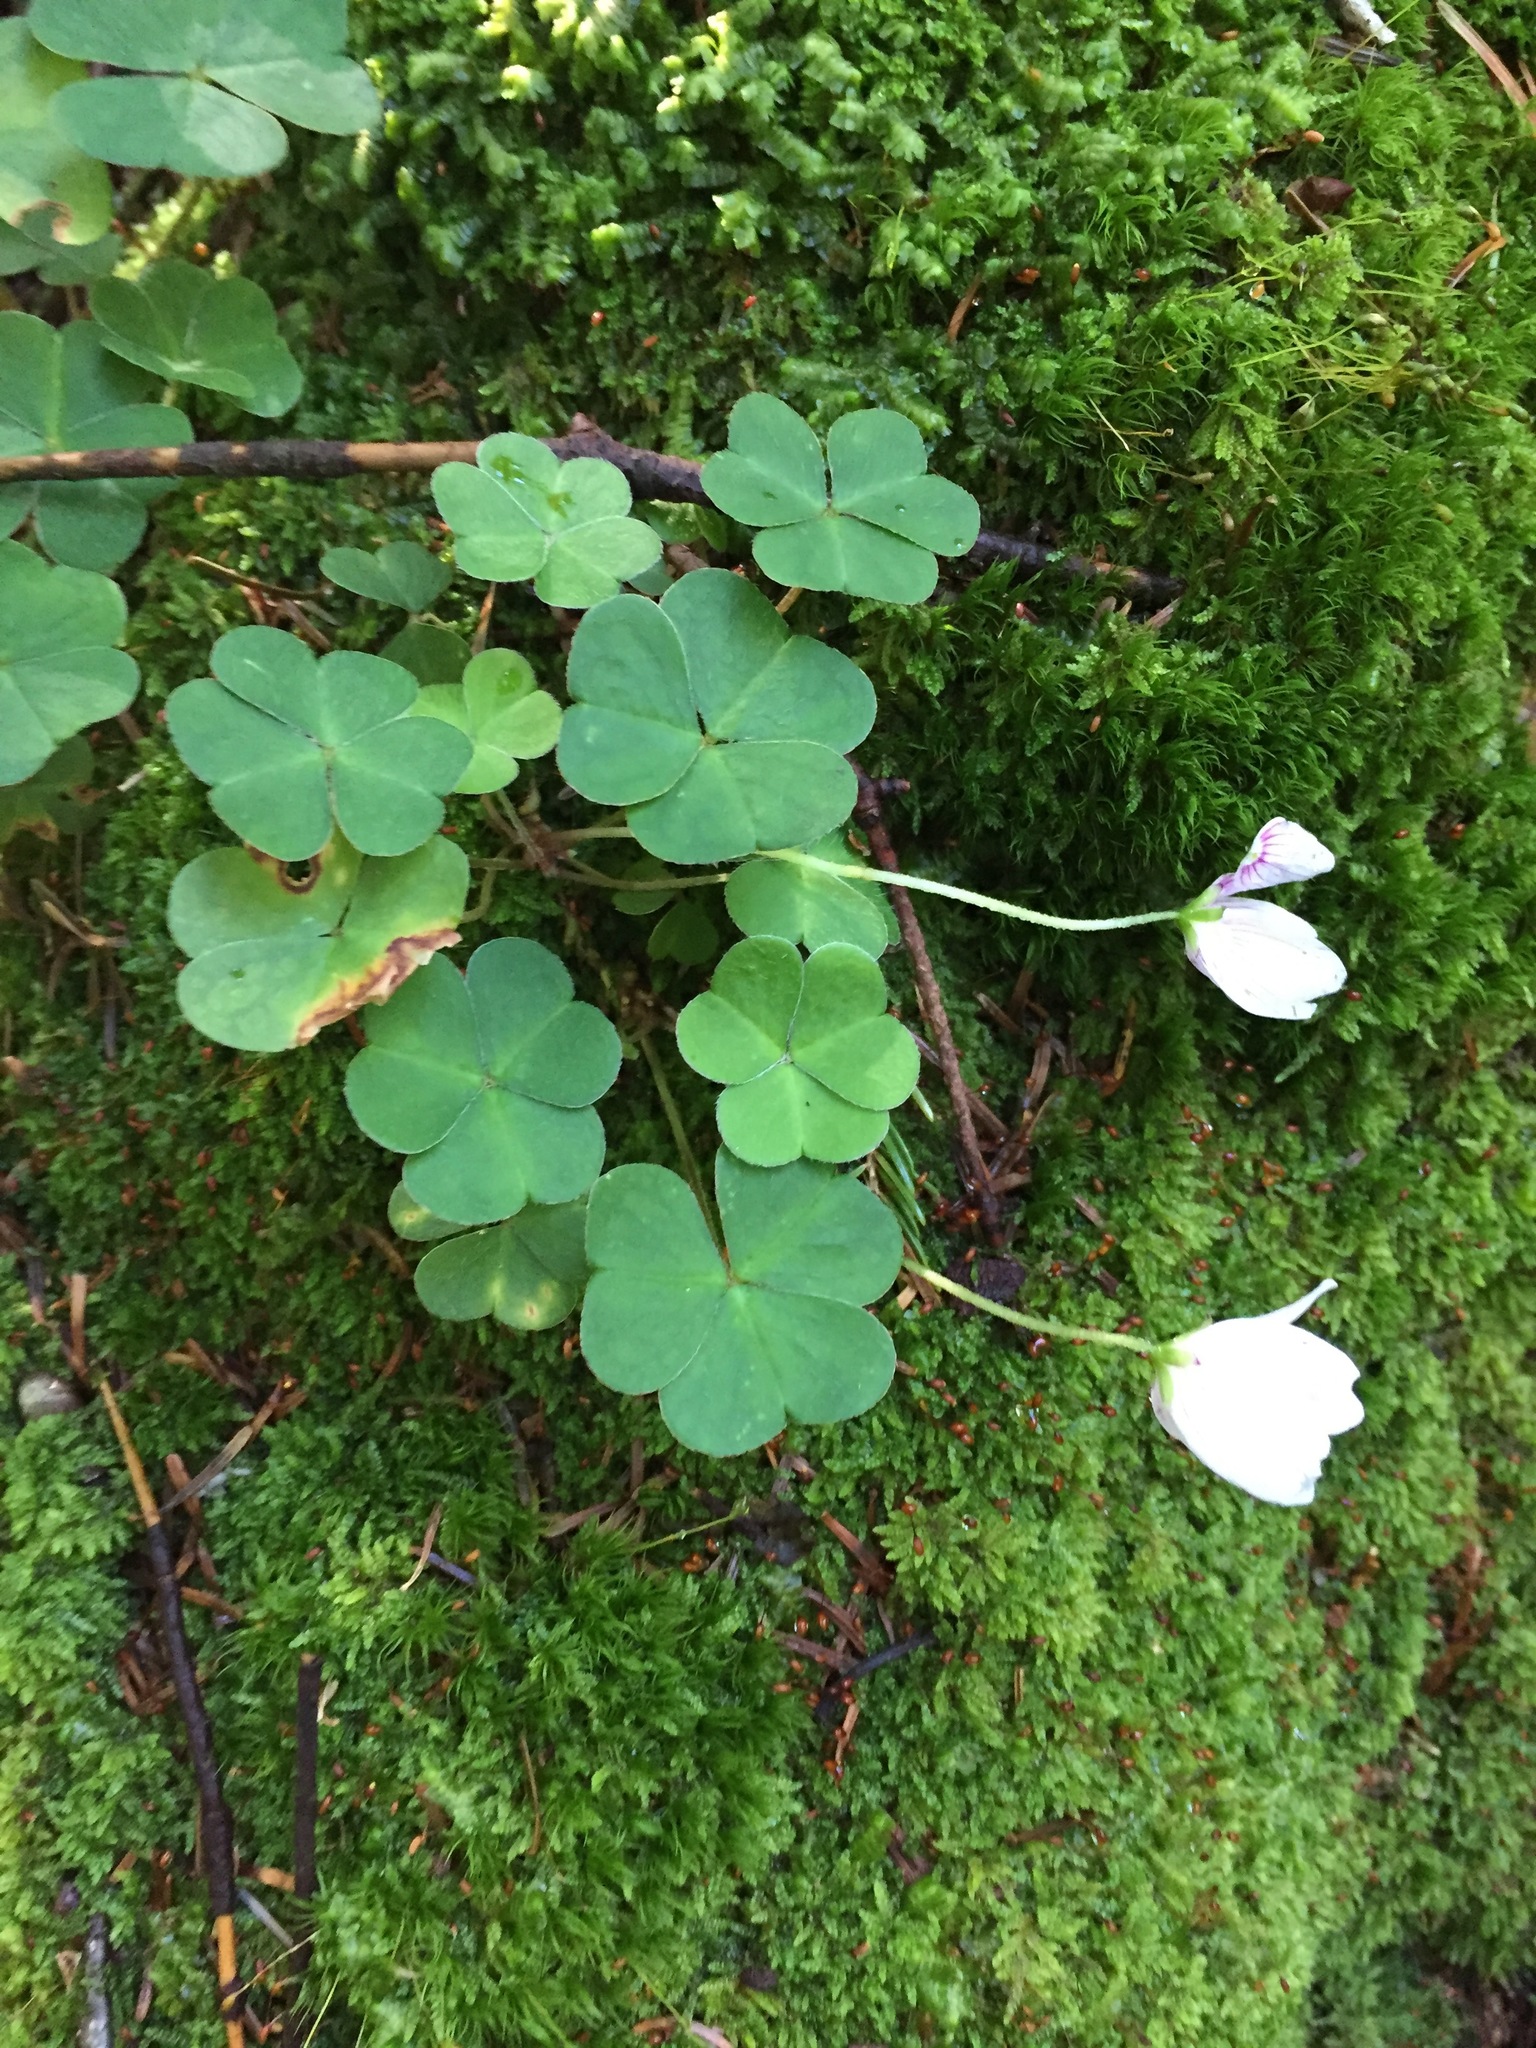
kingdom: Plantae
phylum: Tracheophyta
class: Magnoliopsida
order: Oxalidales
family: Oxalidaceae
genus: Oxalis
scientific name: Oxalis montana
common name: American wood-sorrel
